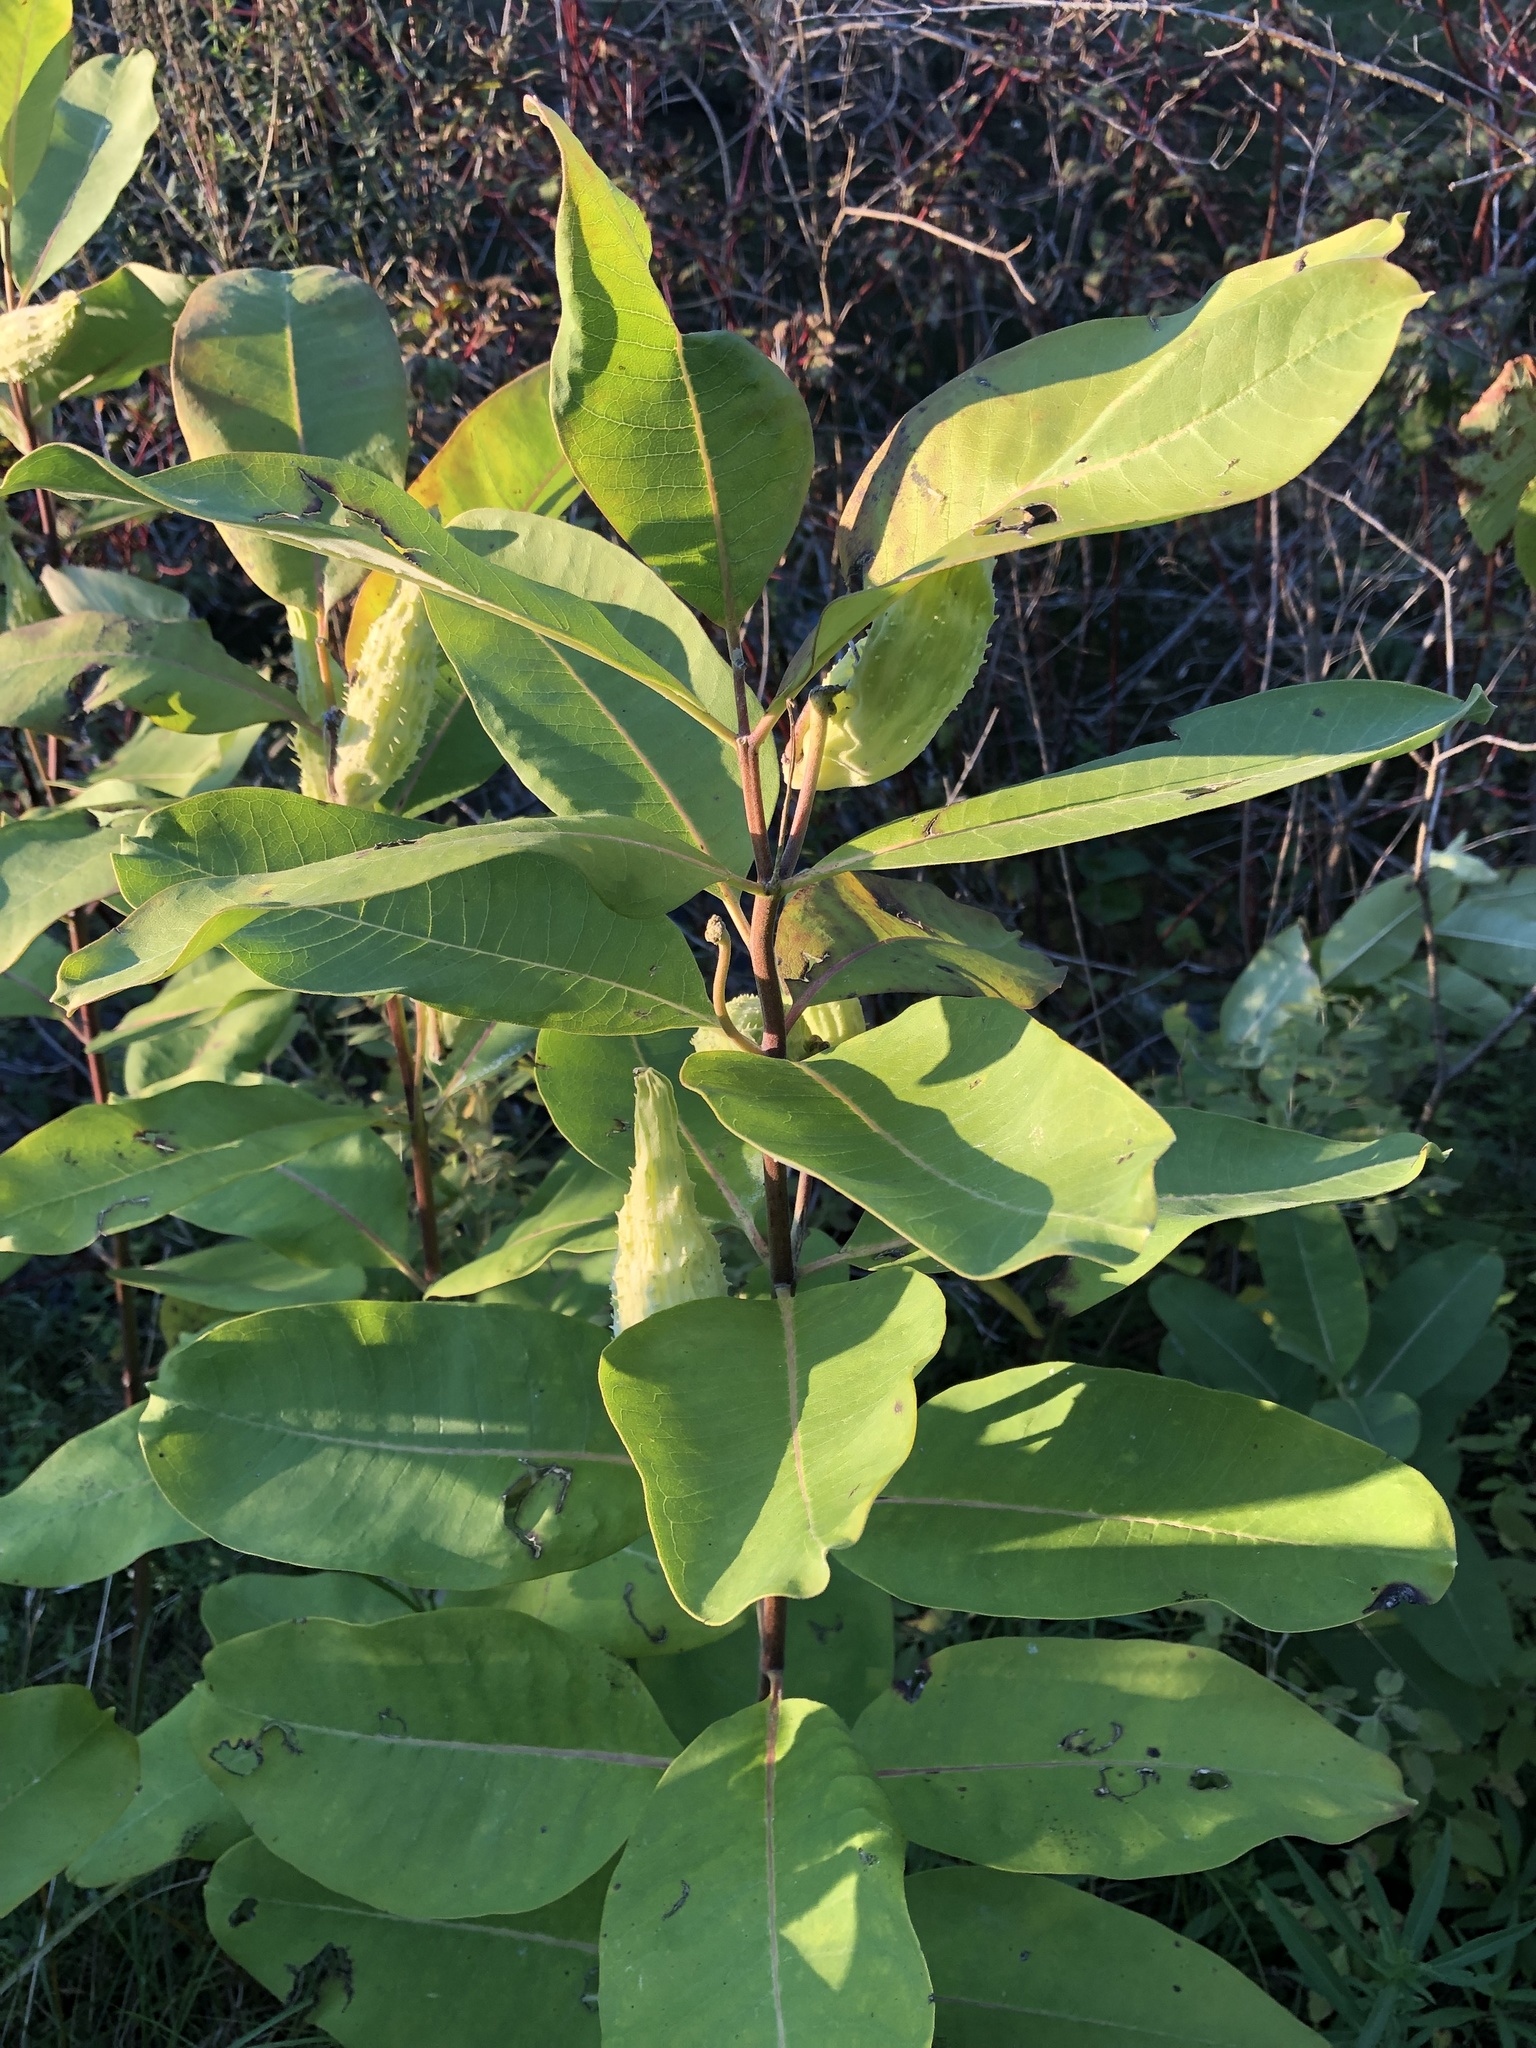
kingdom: Plantae
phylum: Tracheophyta
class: Magnoliopsida
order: Gentianales
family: Apocynaceae
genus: Asclepias
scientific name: Asclepias syriaca
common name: Common milkweed
